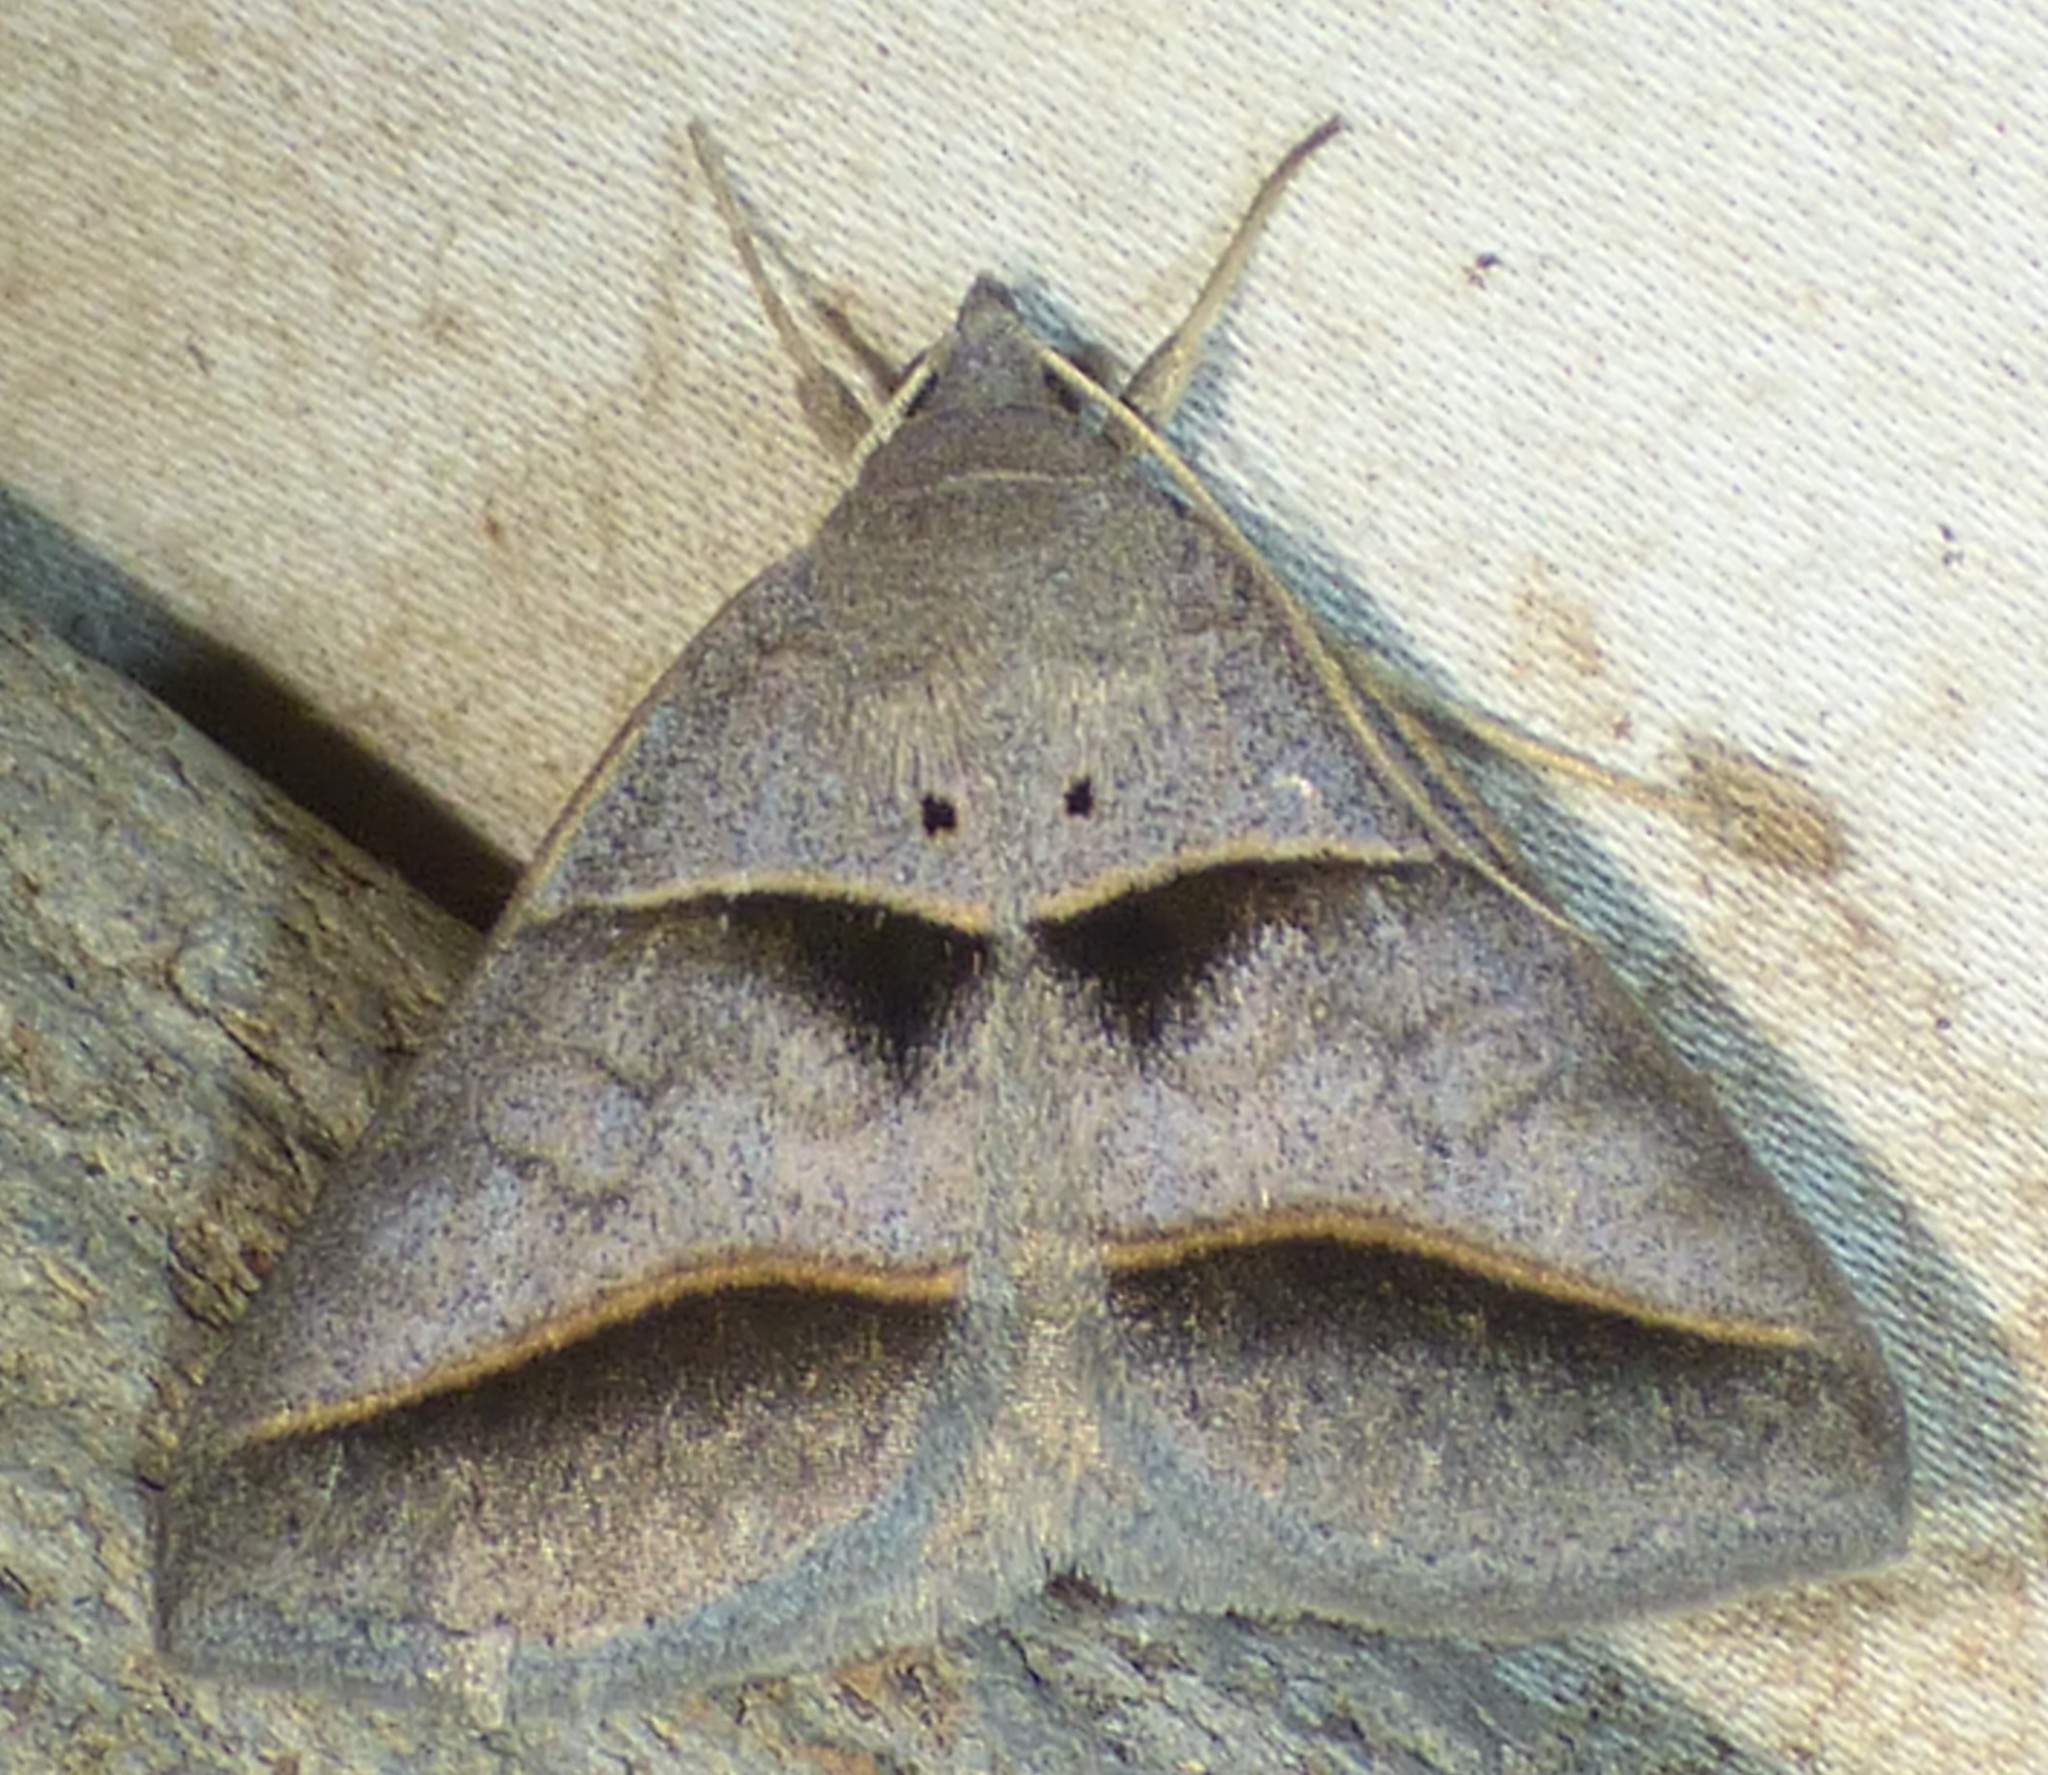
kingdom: Animalia
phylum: Arthropoda
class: Insecta
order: Lepidoptera
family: Erebidae
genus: Ptichodis
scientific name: Ptichodis herbarum
